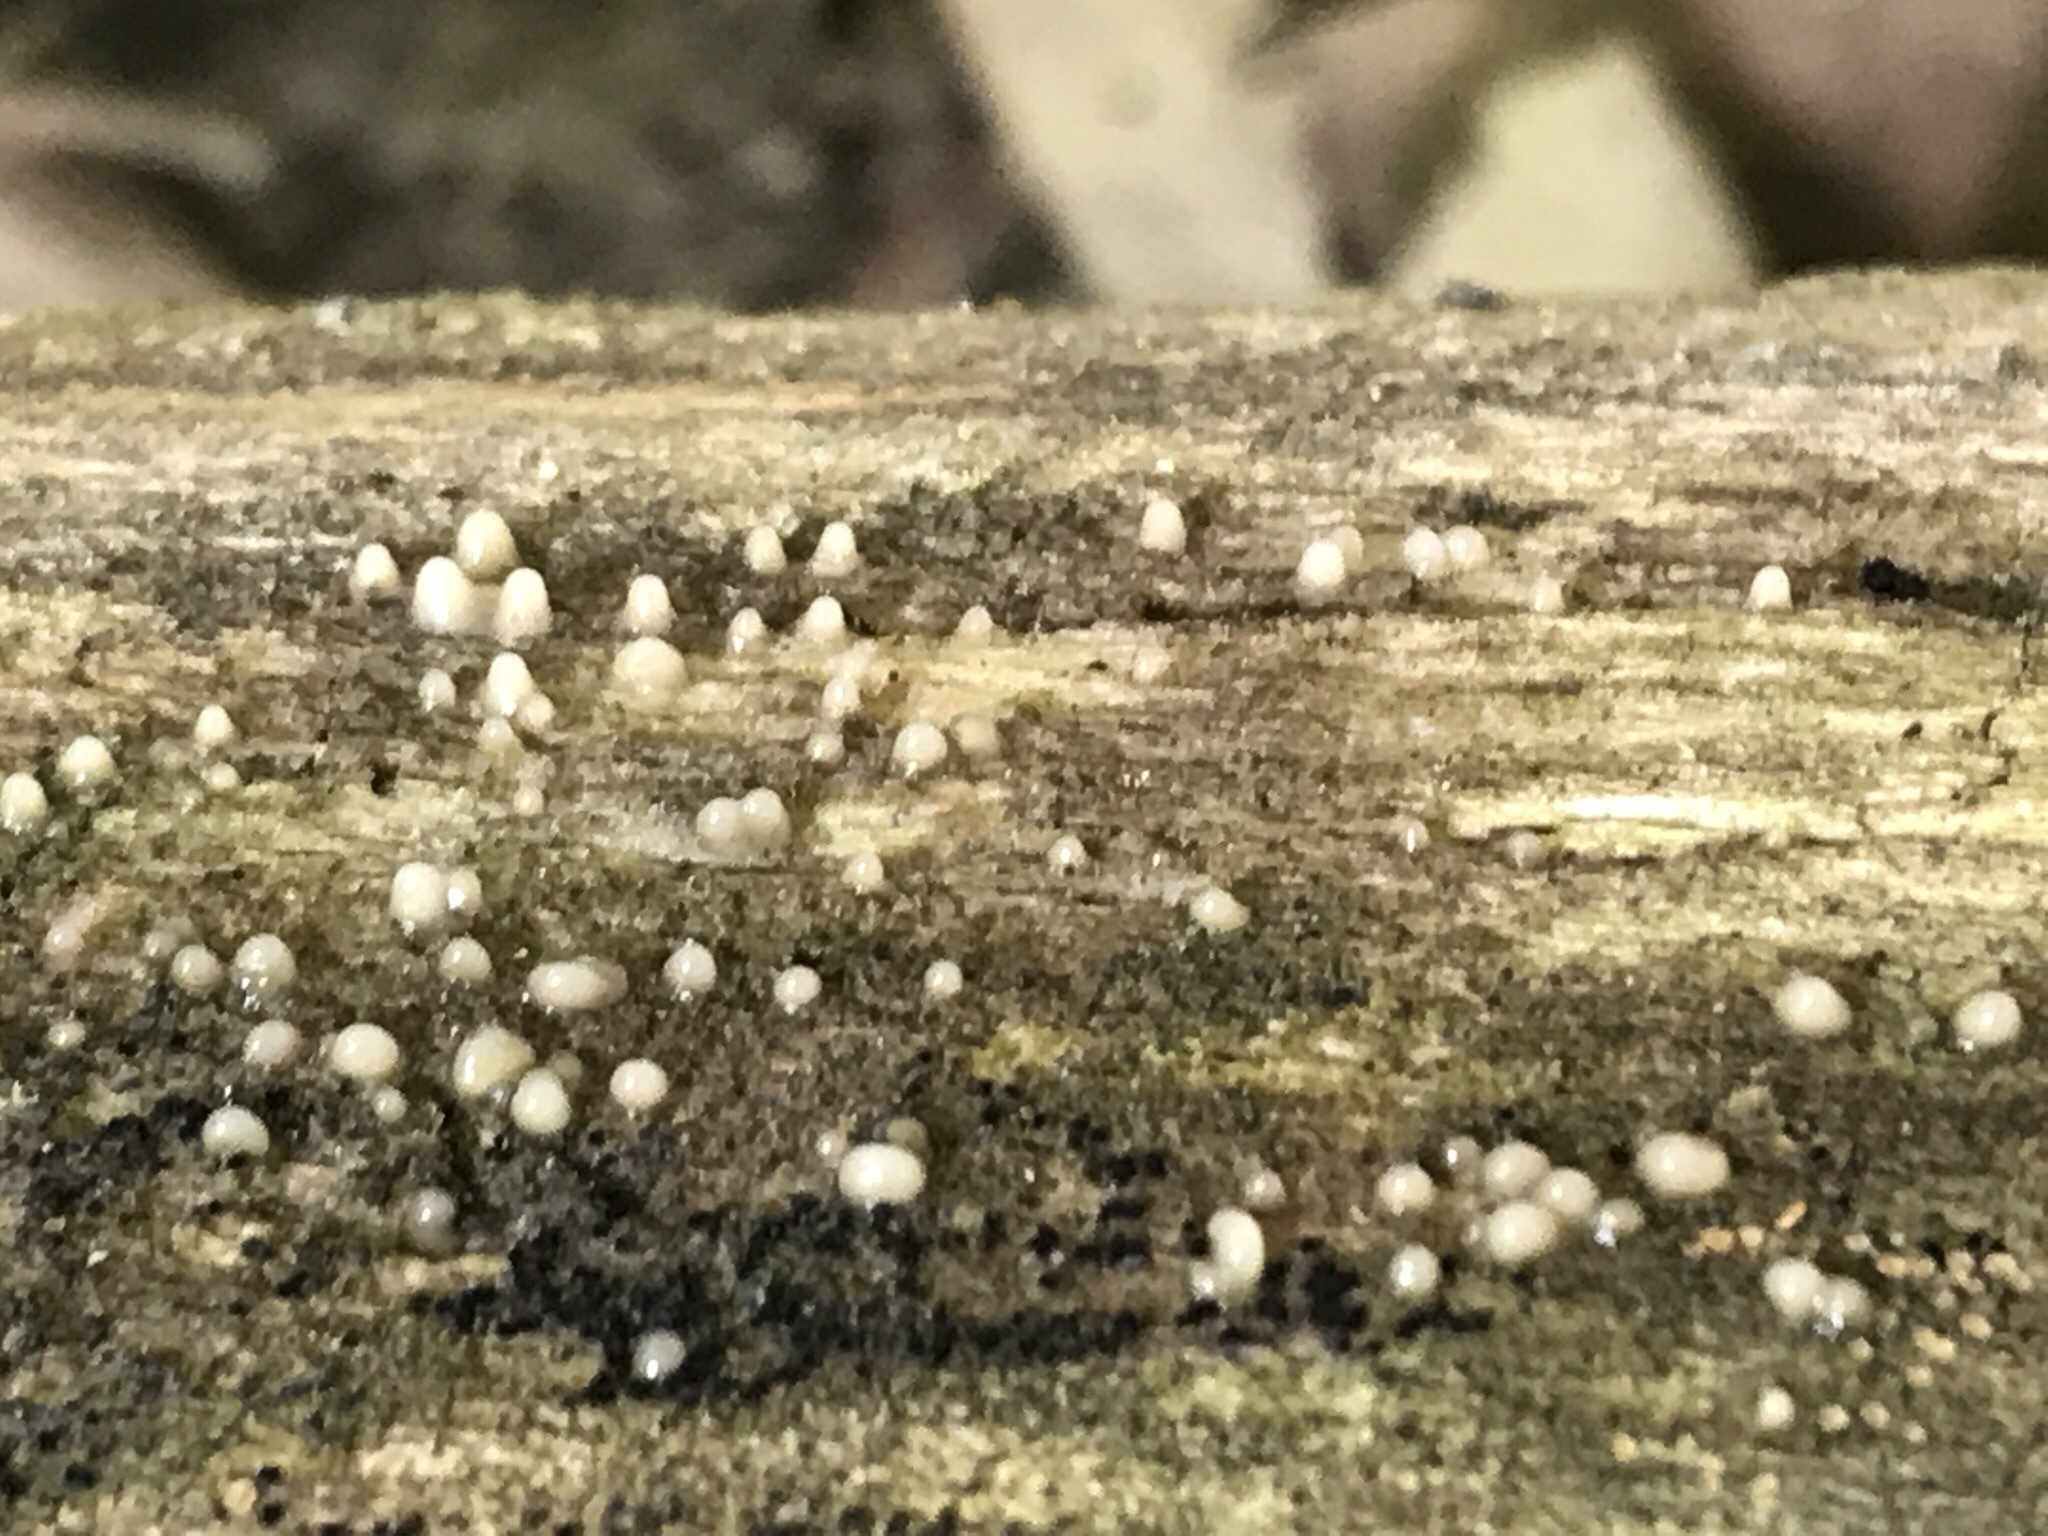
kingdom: Fungi
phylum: Basidiomycota
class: Atractiellomycetes
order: Atractiellales
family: Phleogenaceae
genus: Helicogloea
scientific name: Helicogloea compressa
